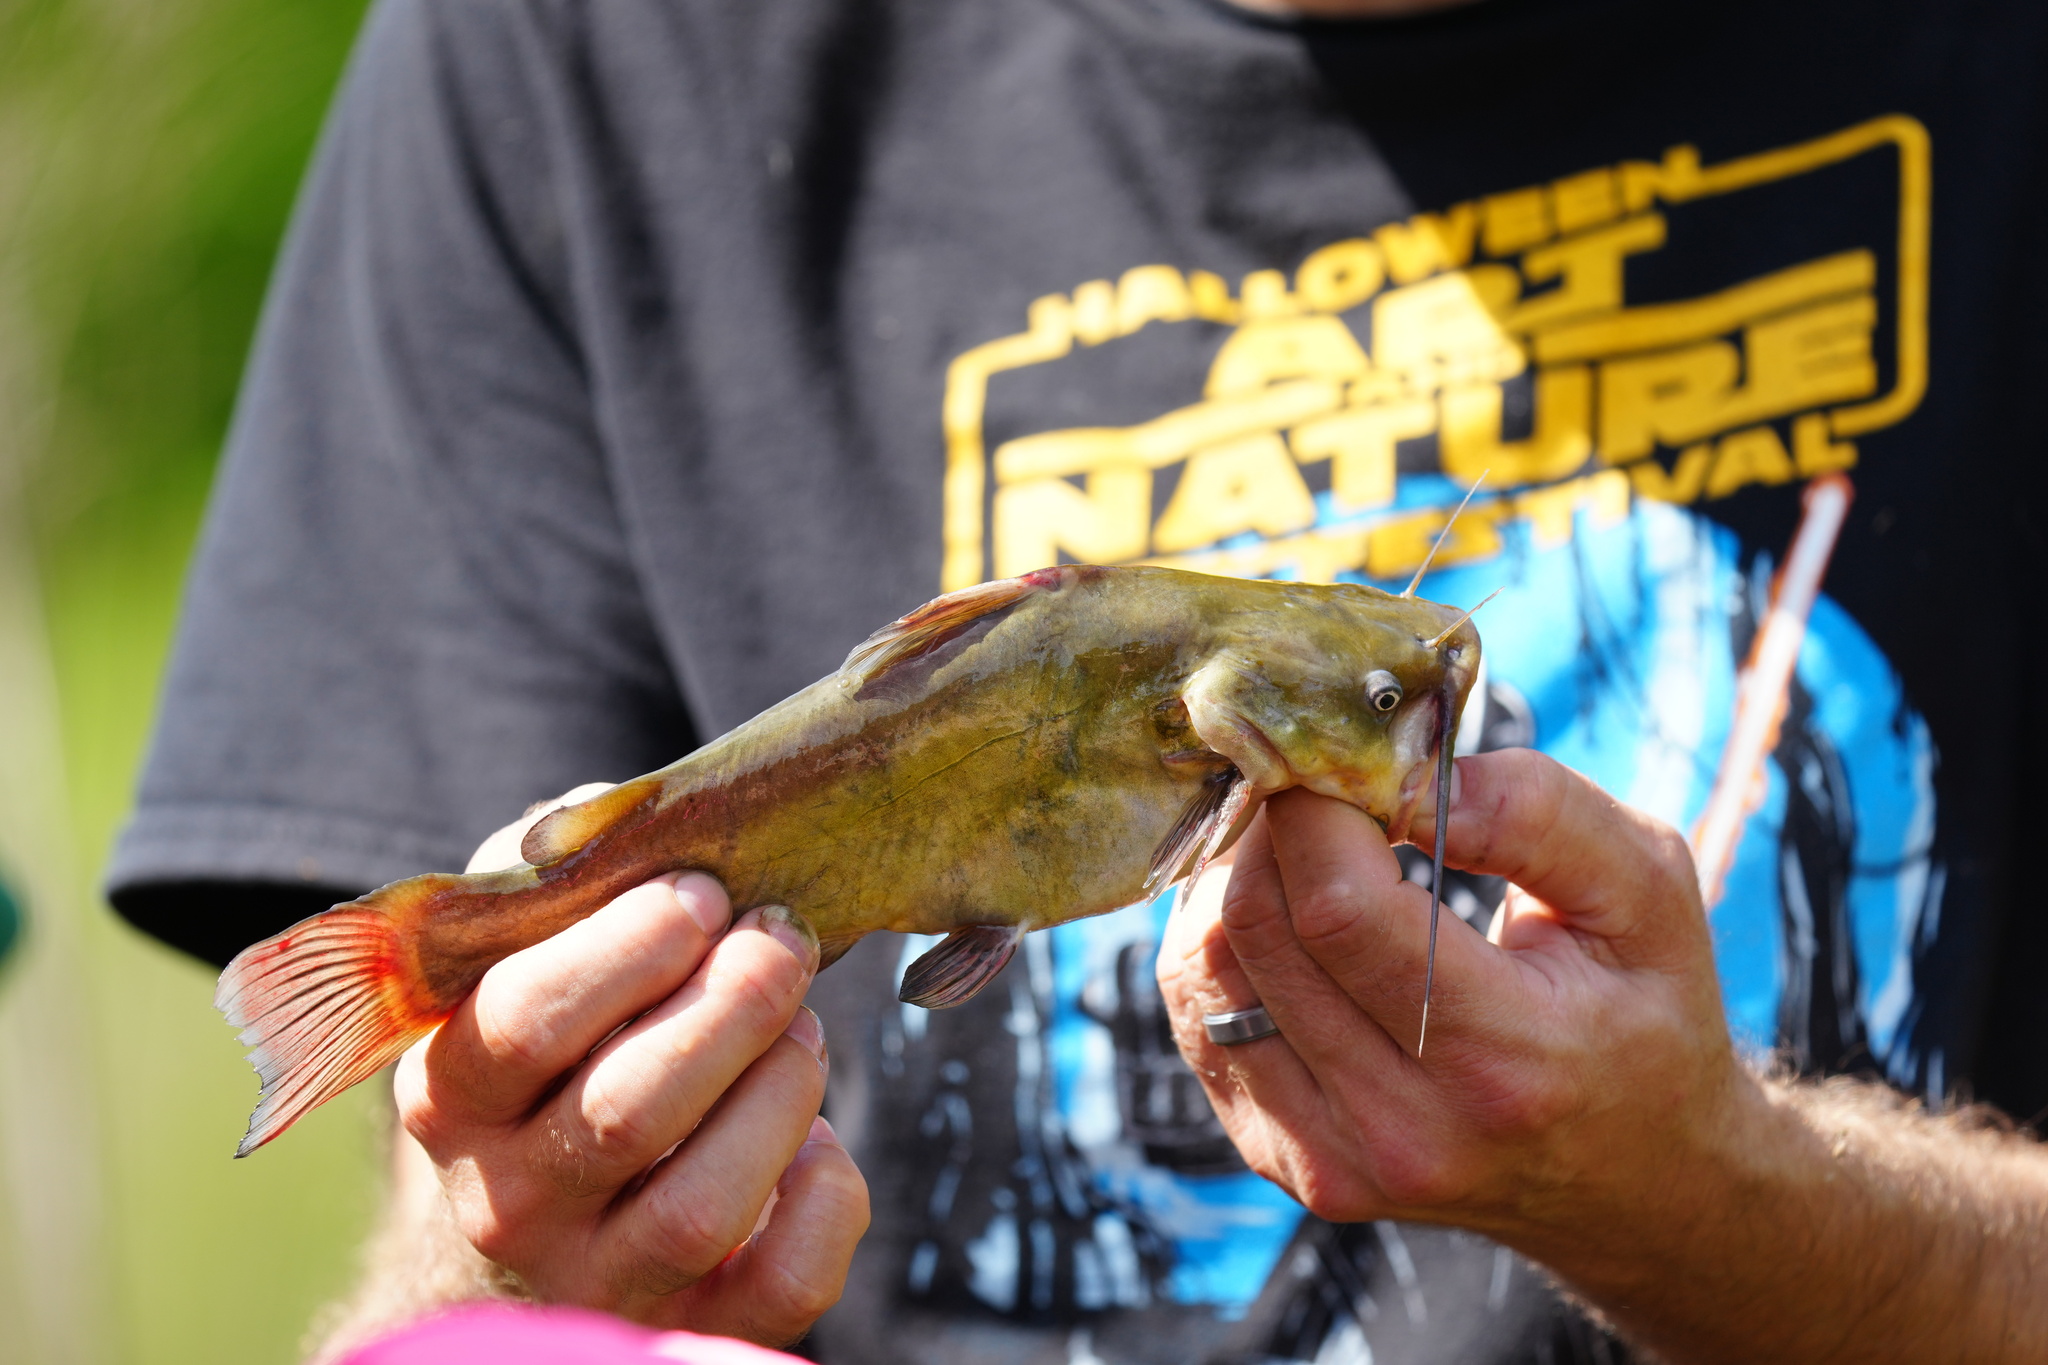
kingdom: Animalia
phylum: Chordata
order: Siluriformes
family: Ictaluridae
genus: Ameiurus
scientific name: Ameiurus melas
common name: Black bullhead
